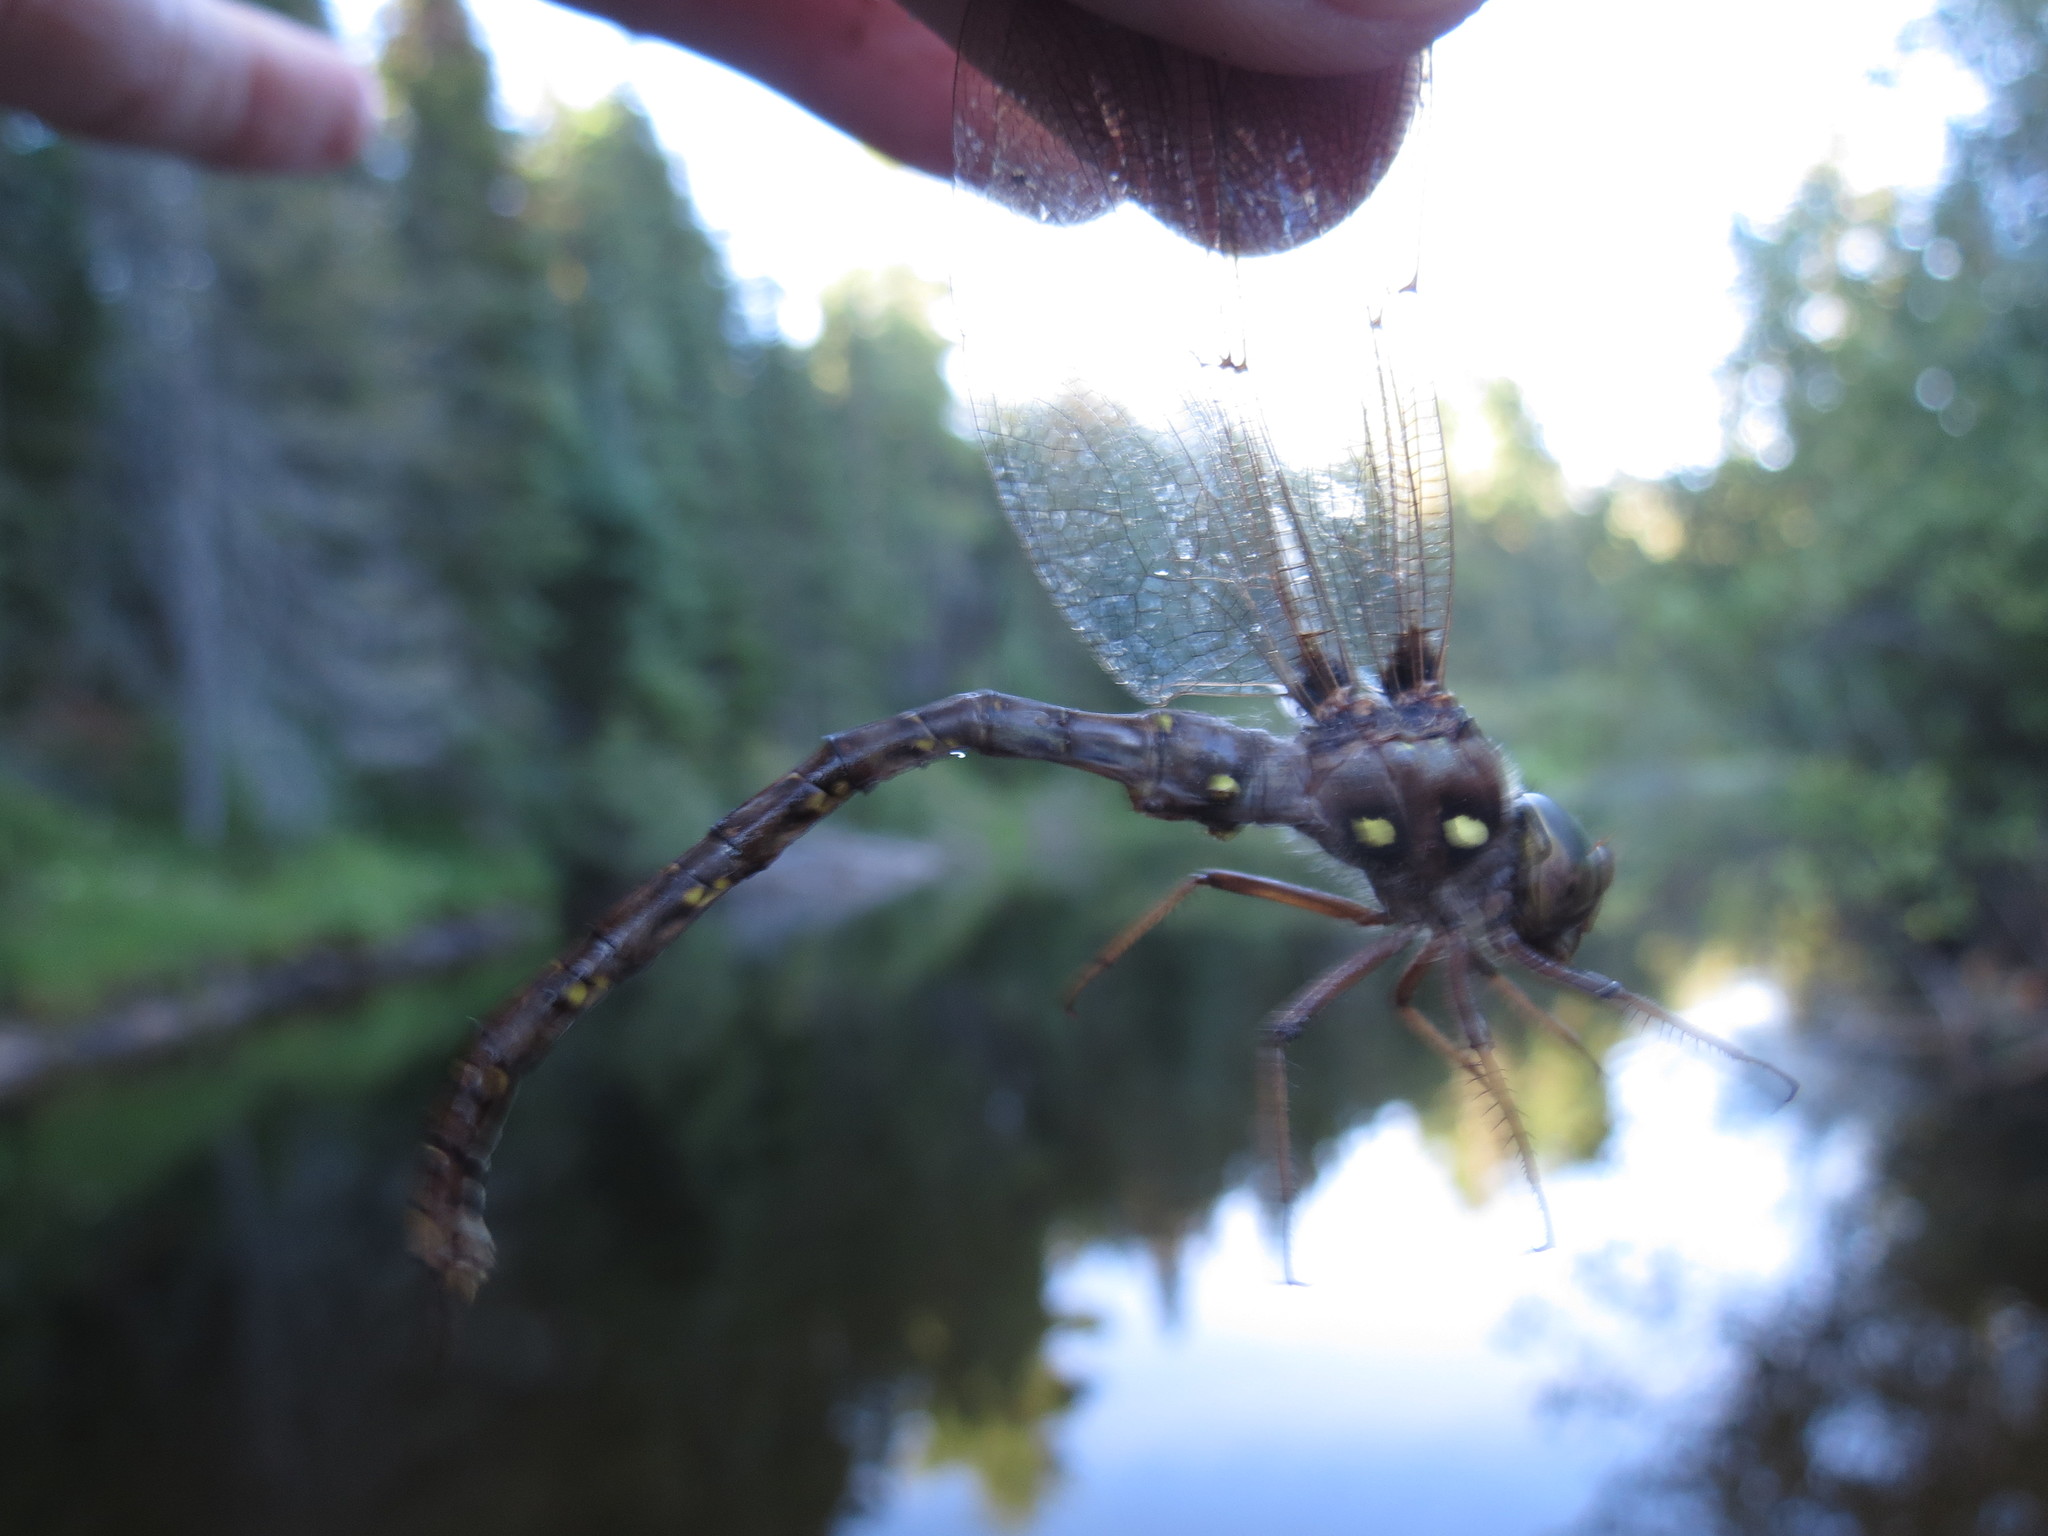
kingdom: Animalia
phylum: Arthropoda
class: Insecta
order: Odonata
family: Aeshnidae
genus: Boyeria
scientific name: Boyeria vinosa
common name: Fawn darner
